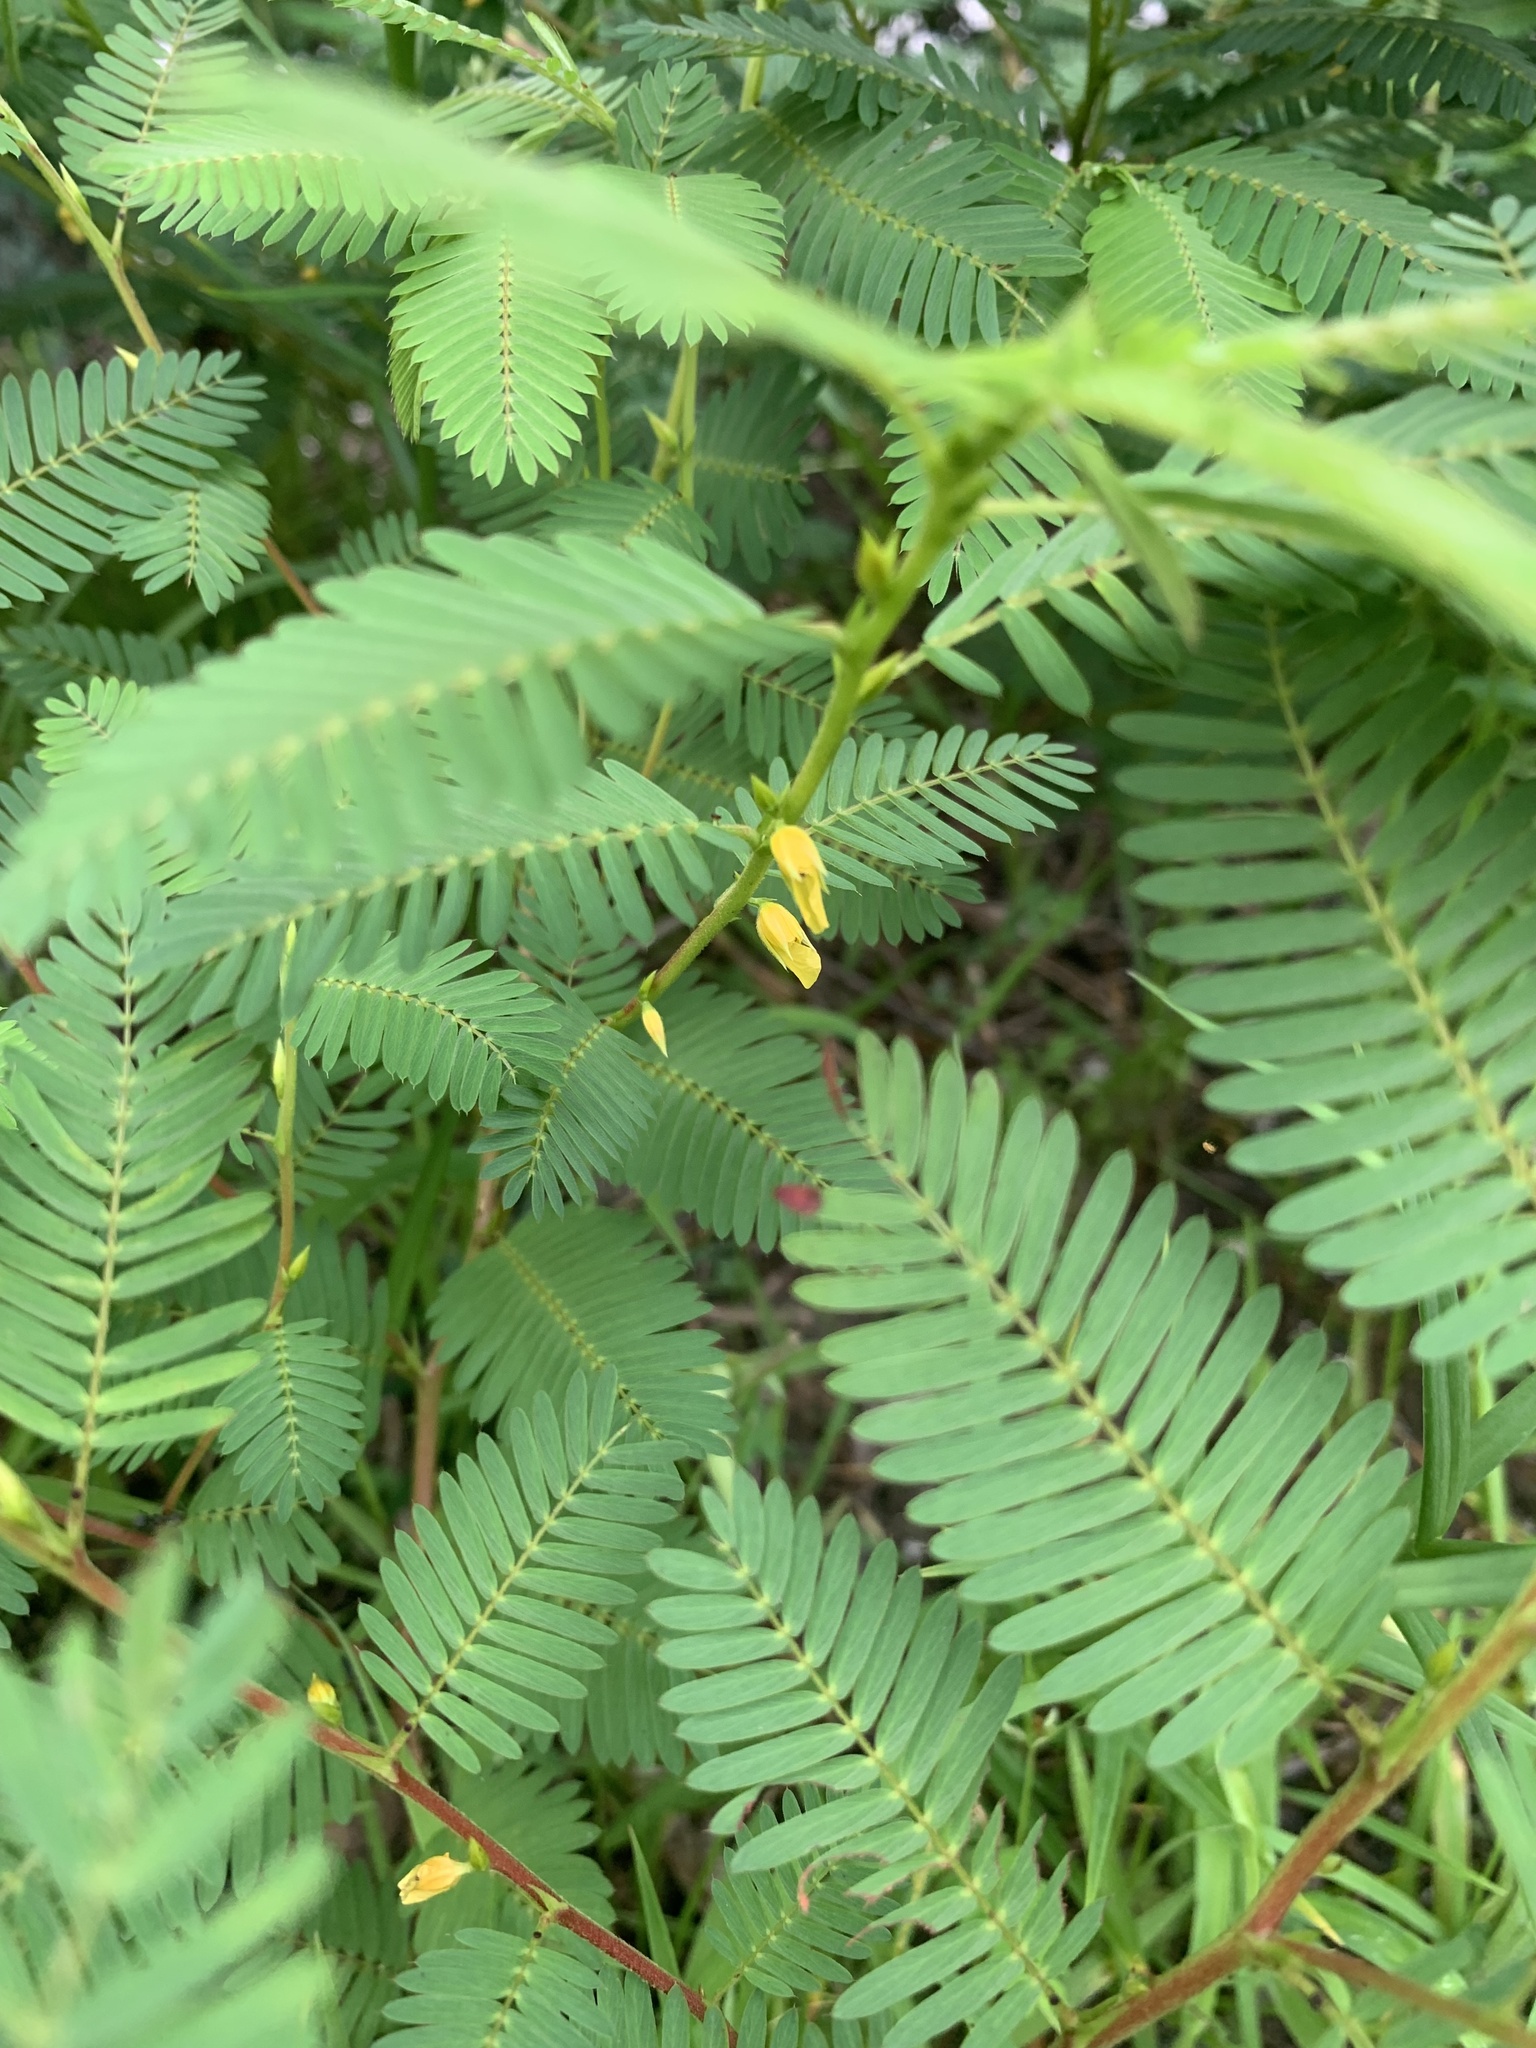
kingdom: Plantae
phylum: Tracheophyta
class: Magnoliopsida
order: Fabales
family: Fabaceae
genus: Chamaecrista
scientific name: Chamaecrista nictitans
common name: Sensitive cassia
